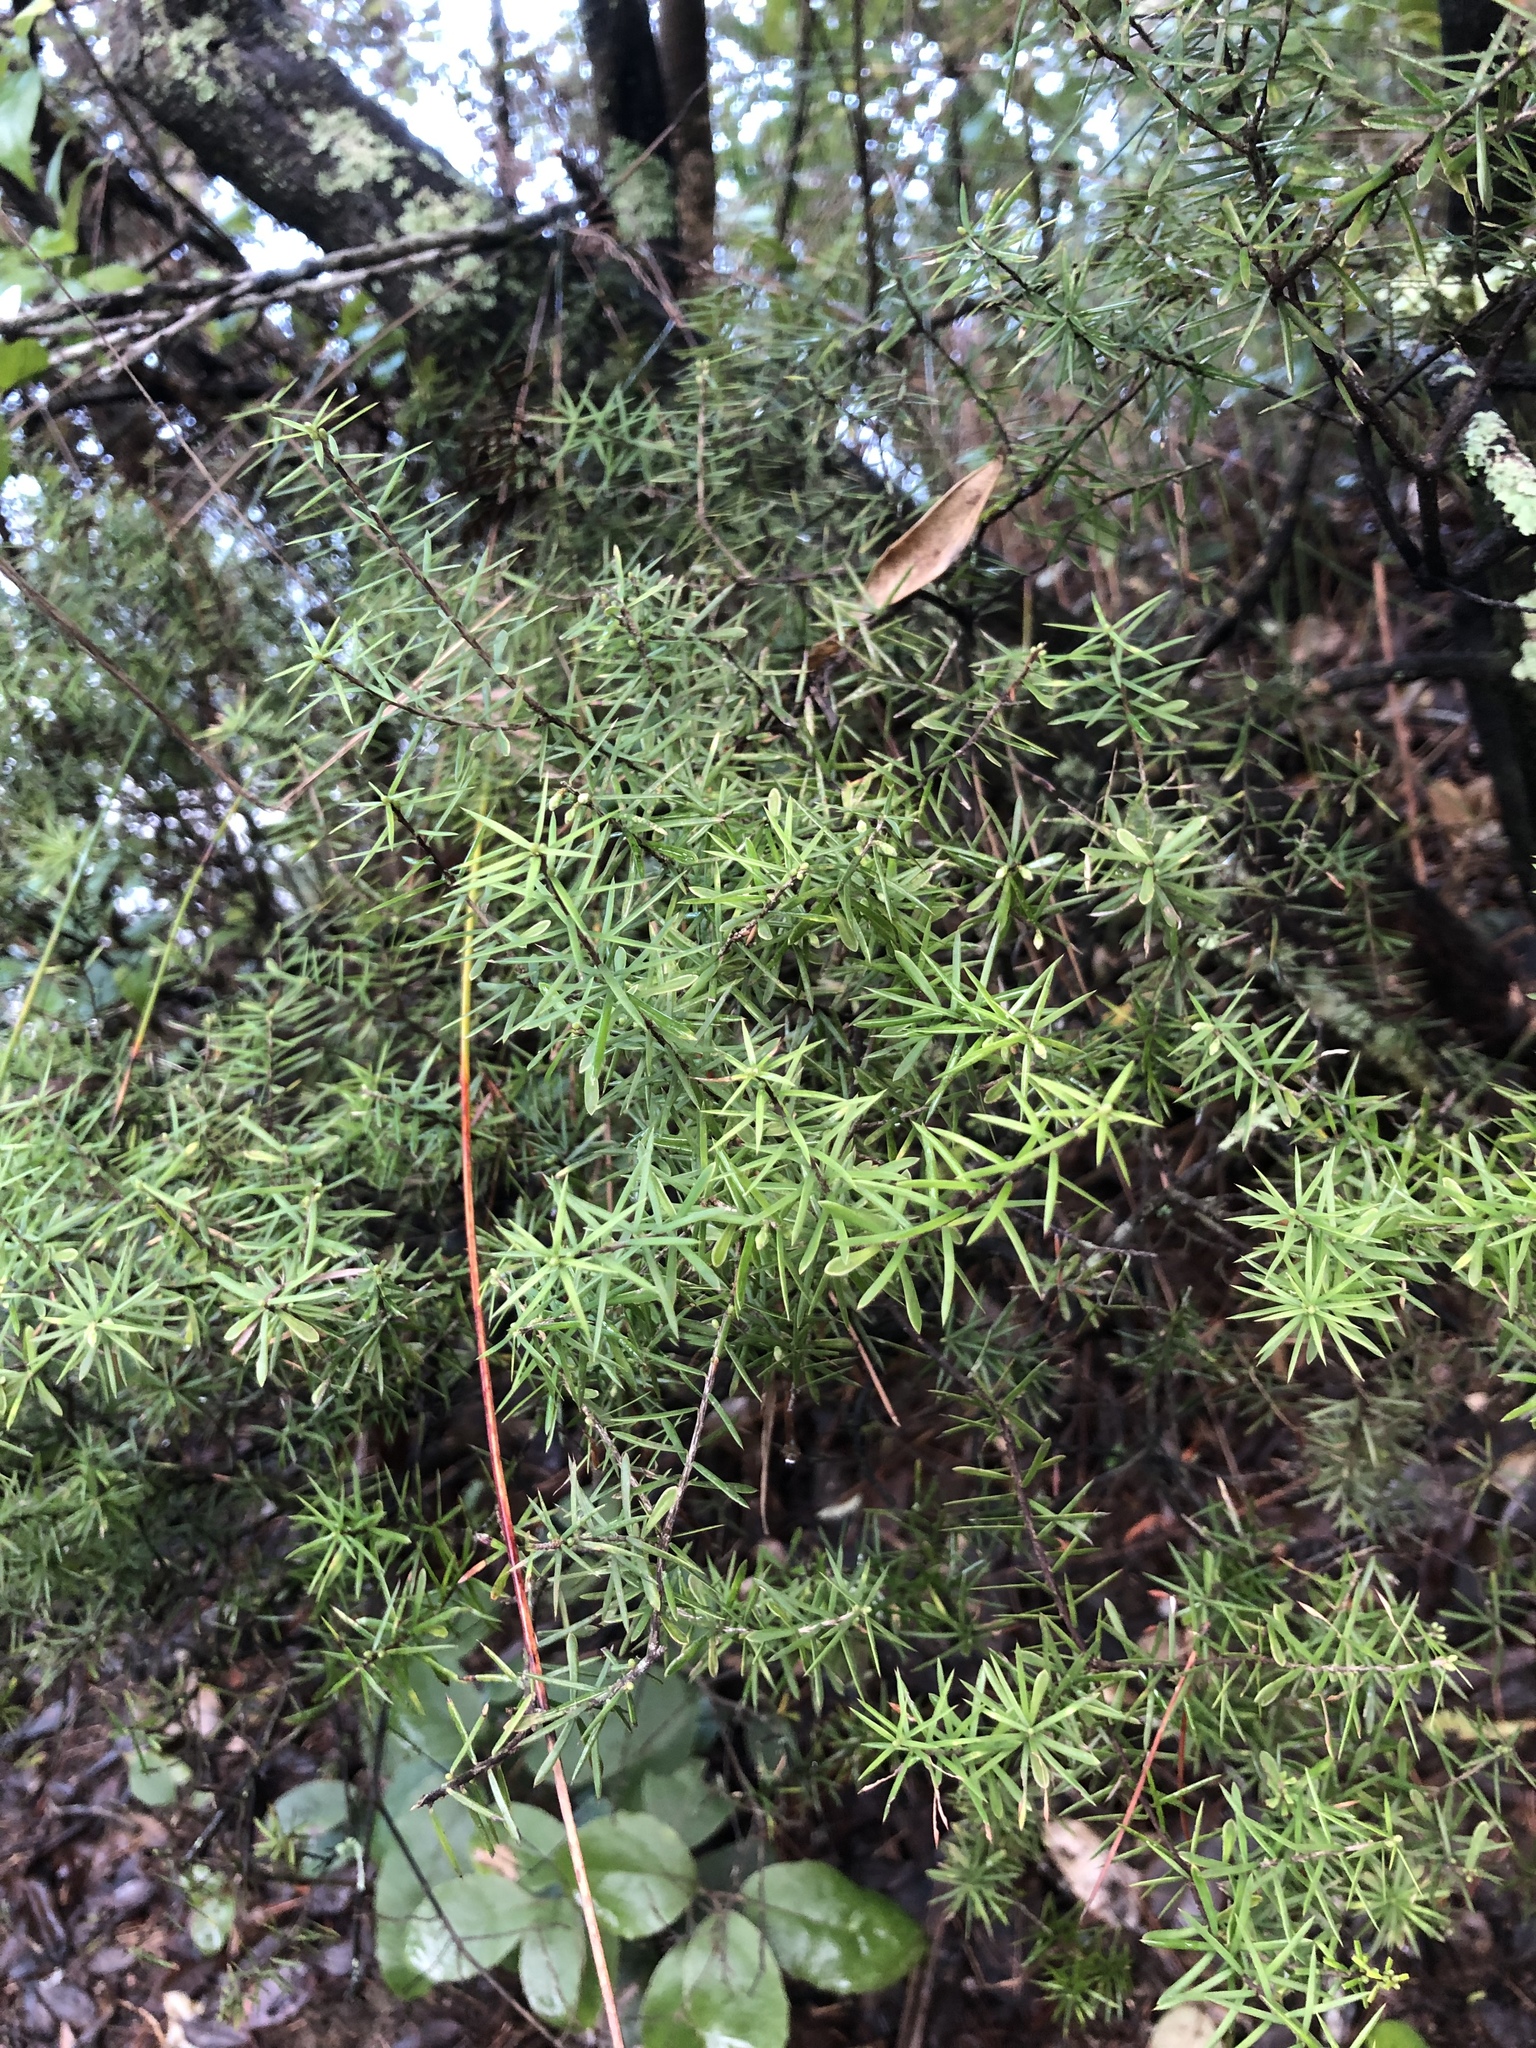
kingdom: Plantae
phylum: Tracheophyta
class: Magnoliopsida
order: Ericales
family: Ericaceae
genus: Leptecophylla
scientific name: Leptecophylla juniperina
